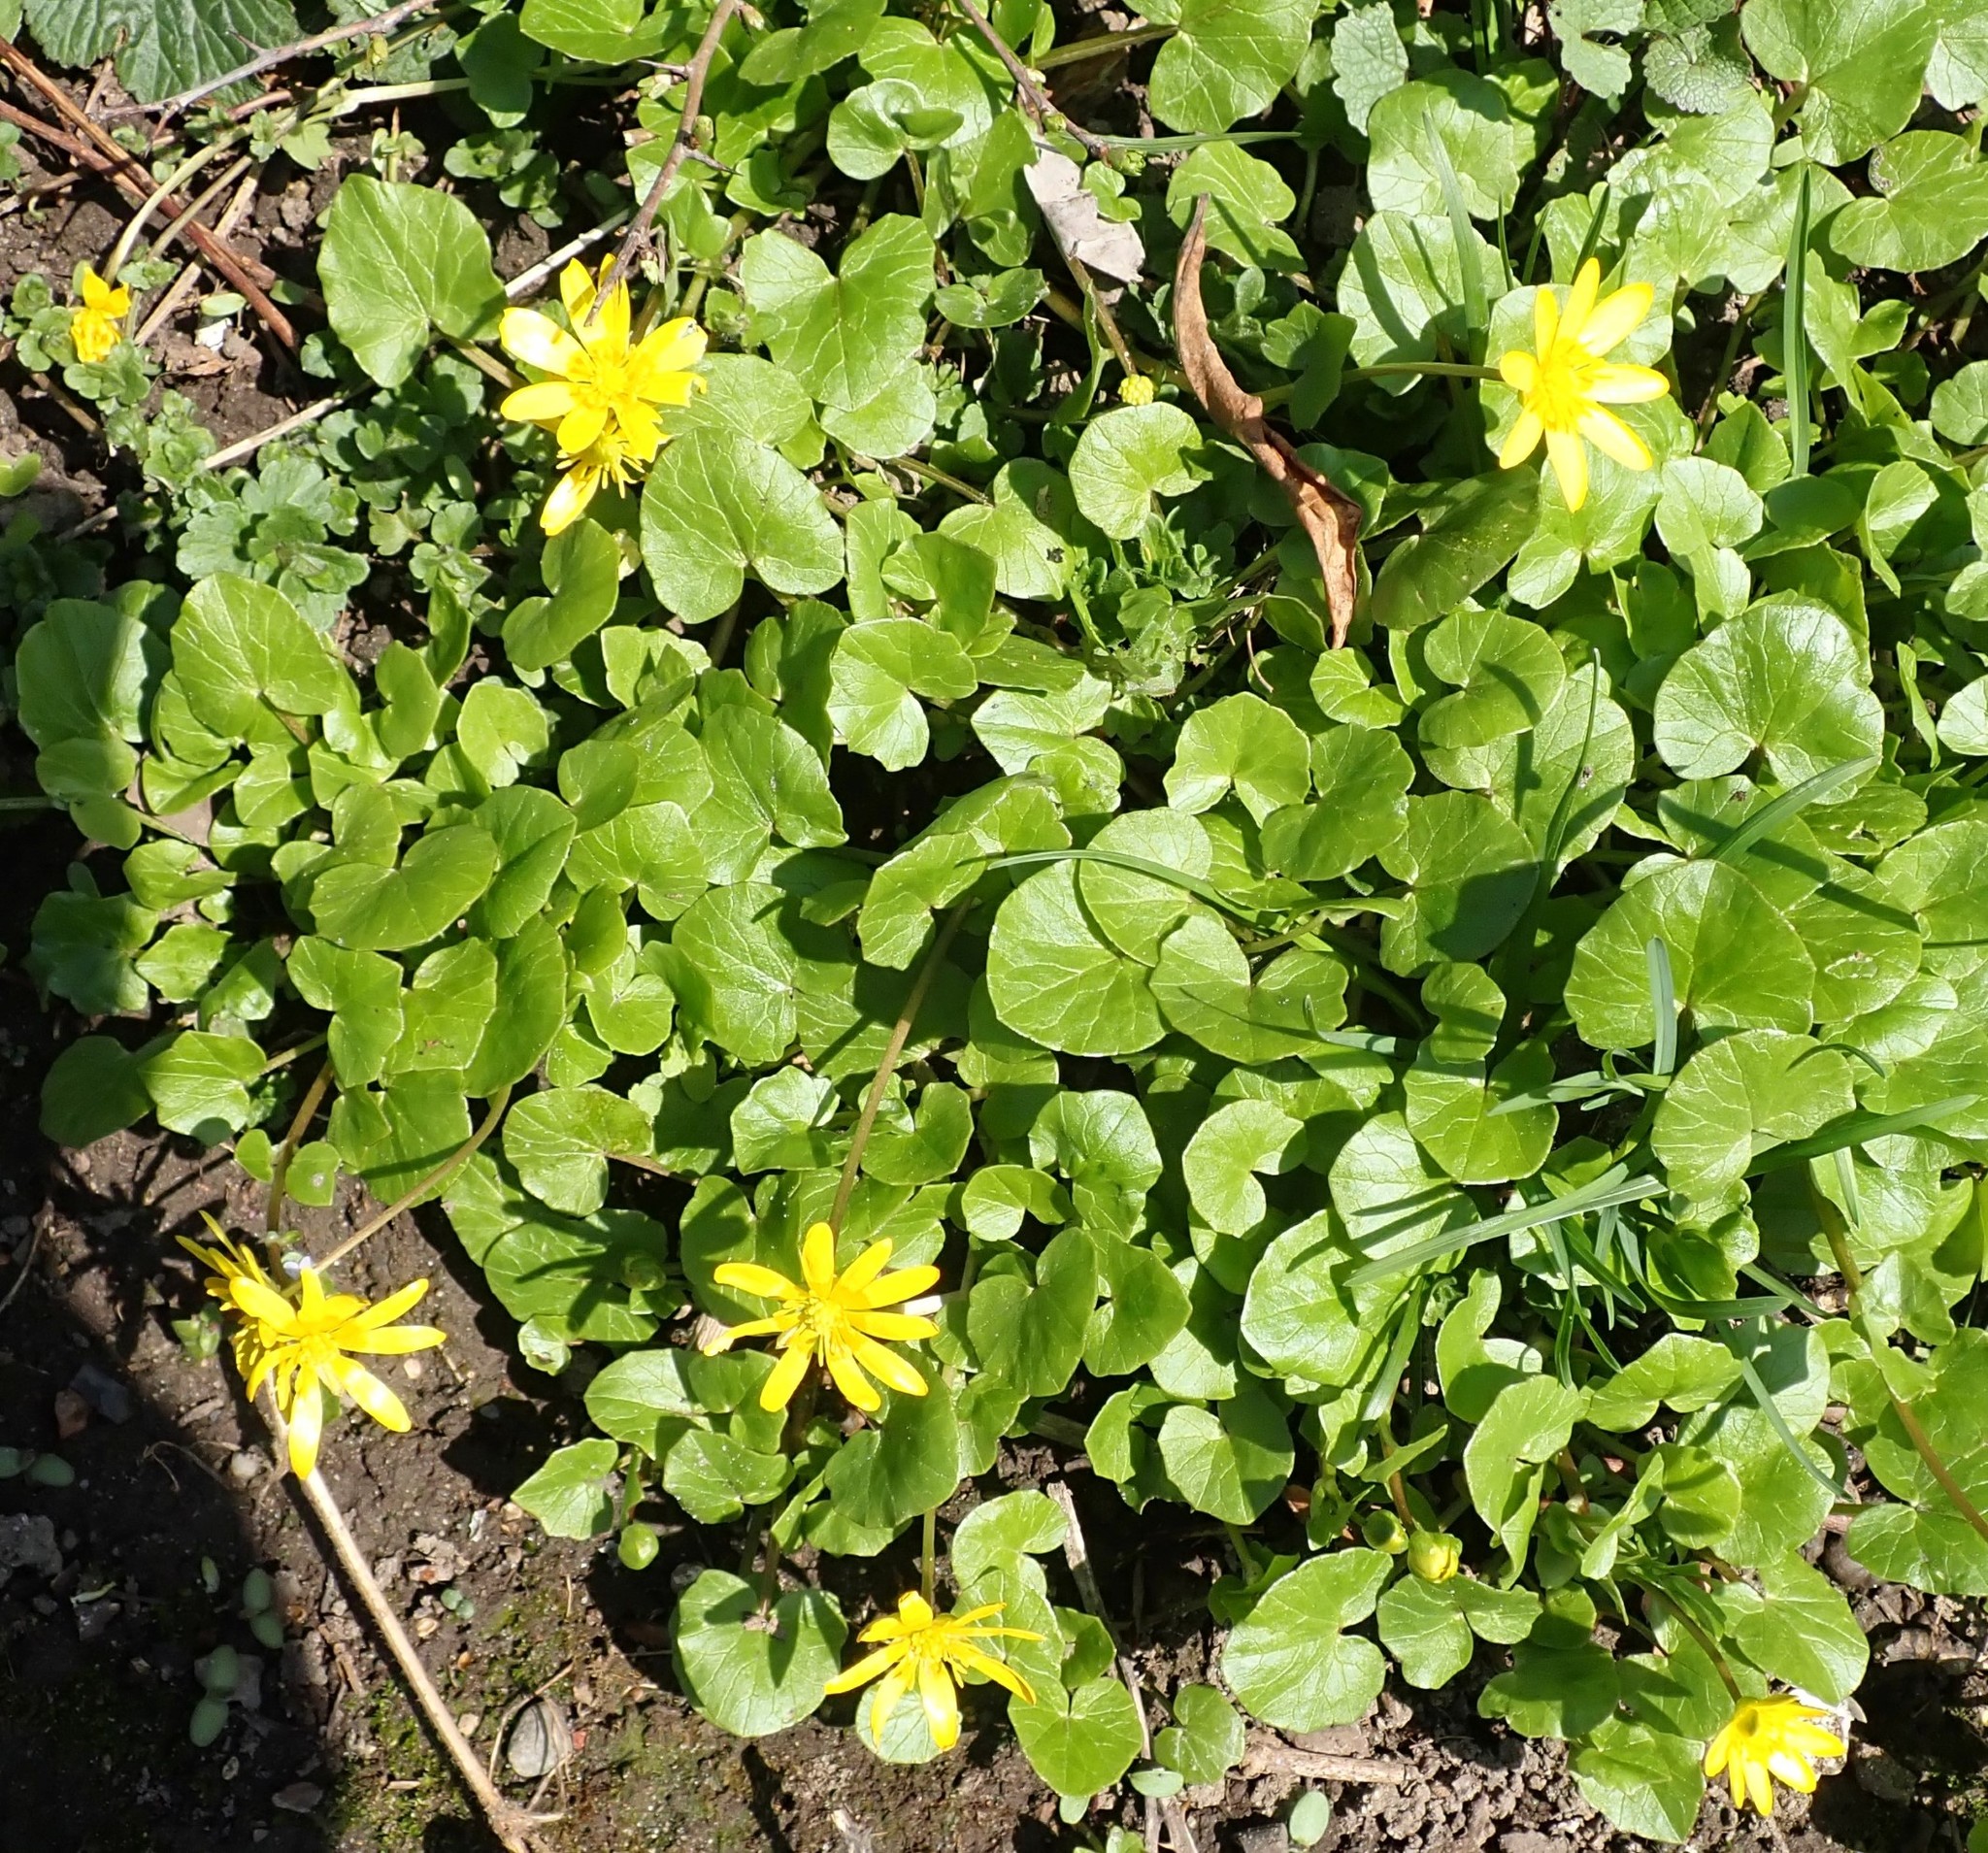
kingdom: Plantae
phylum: Tracheophyta
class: Magnoliopsida
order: Ranunculales
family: Ranunculaceae
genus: Ficaria
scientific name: Ficaria verna
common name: Lesser celandine
